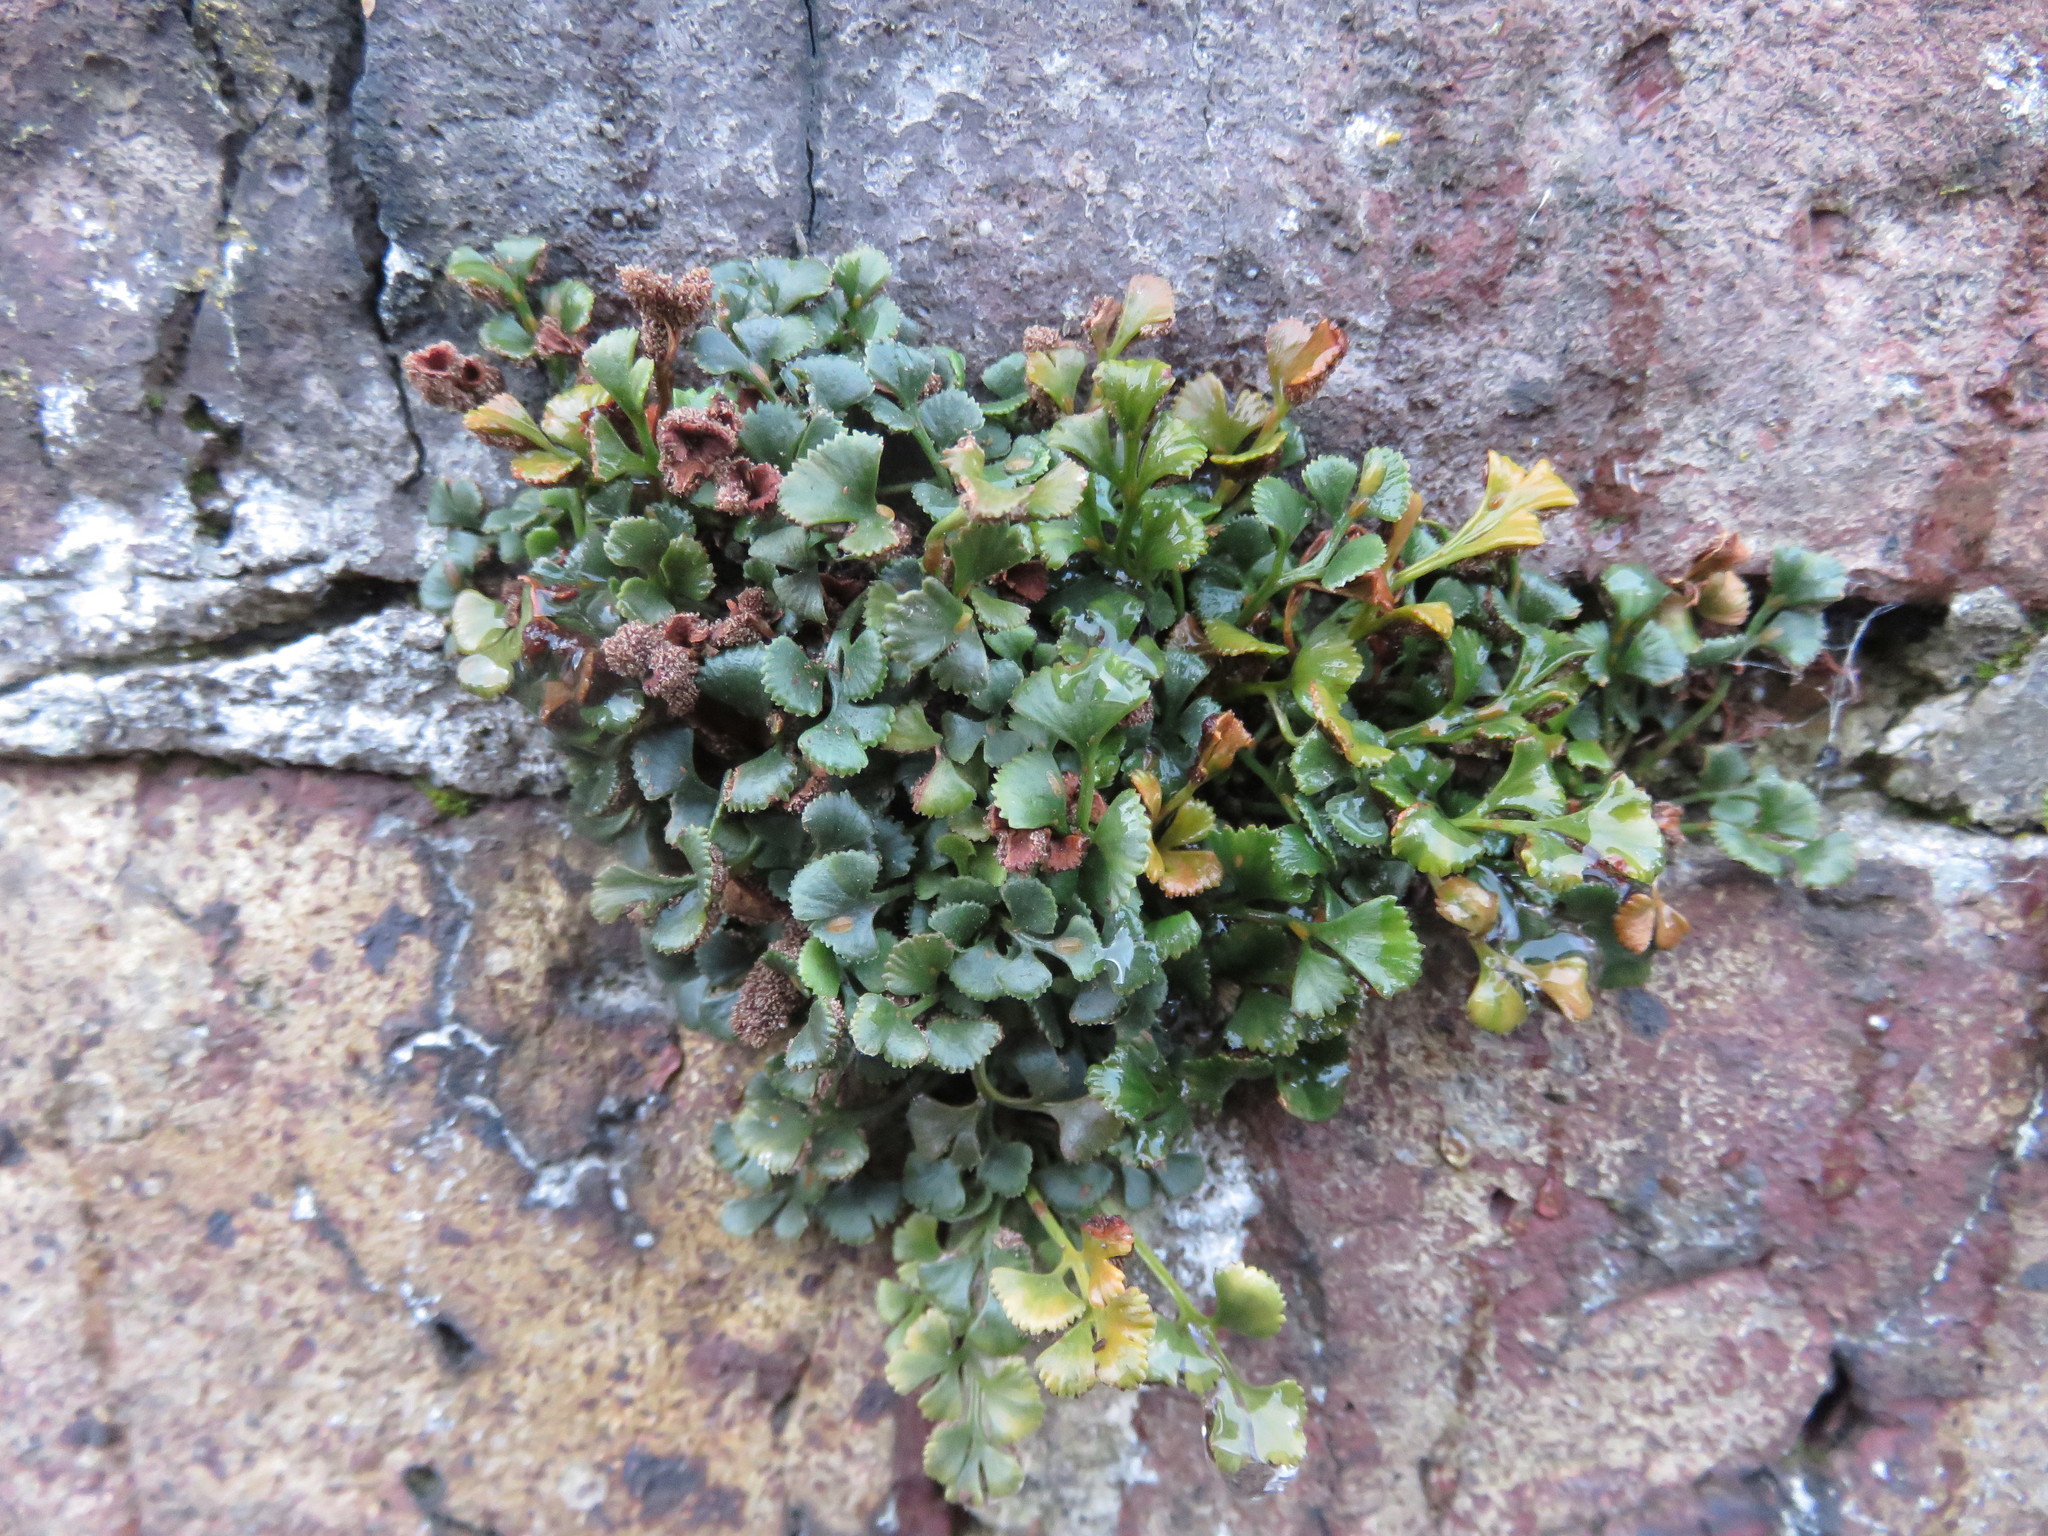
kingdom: Plantae
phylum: Tracheophyta
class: Polypodiopsida
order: Polypodiales
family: Aspleniaceae
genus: Asplenium
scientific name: Asplenium ruta-muraria
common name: Wall-rue
